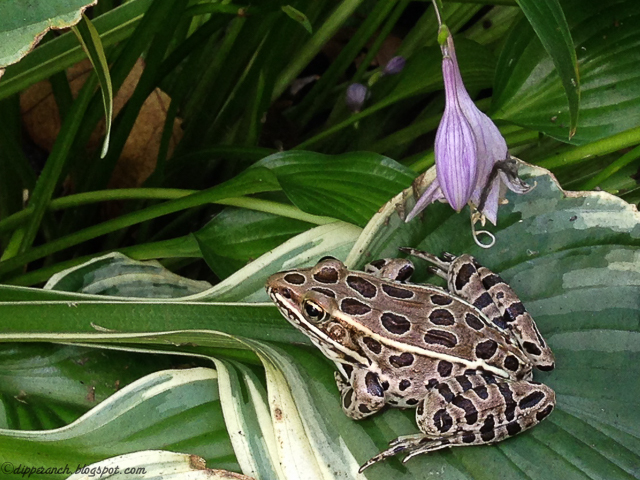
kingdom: Animalia
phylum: Chordata
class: Amphibia
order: Anura
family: Ranidae
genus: Lithobates
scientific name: Lithobates pipiens
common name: Northern leopard frog
